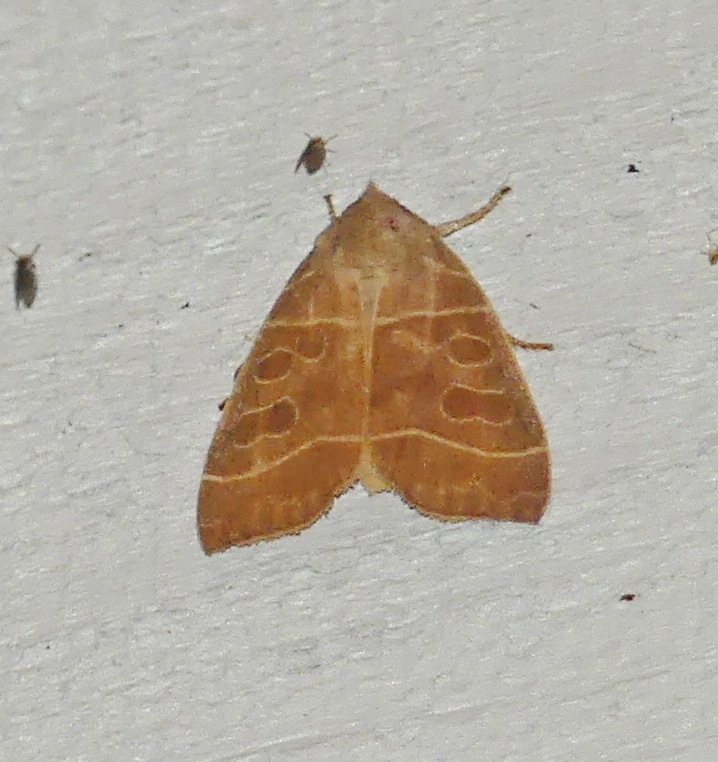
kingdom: Animalia
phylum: Arthropoda
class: Insecta
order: Lepidoptera
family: Noctuidae
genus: Ipimorpha
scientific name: Ipimorpha pleonectusa
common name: Even-lined sallow
